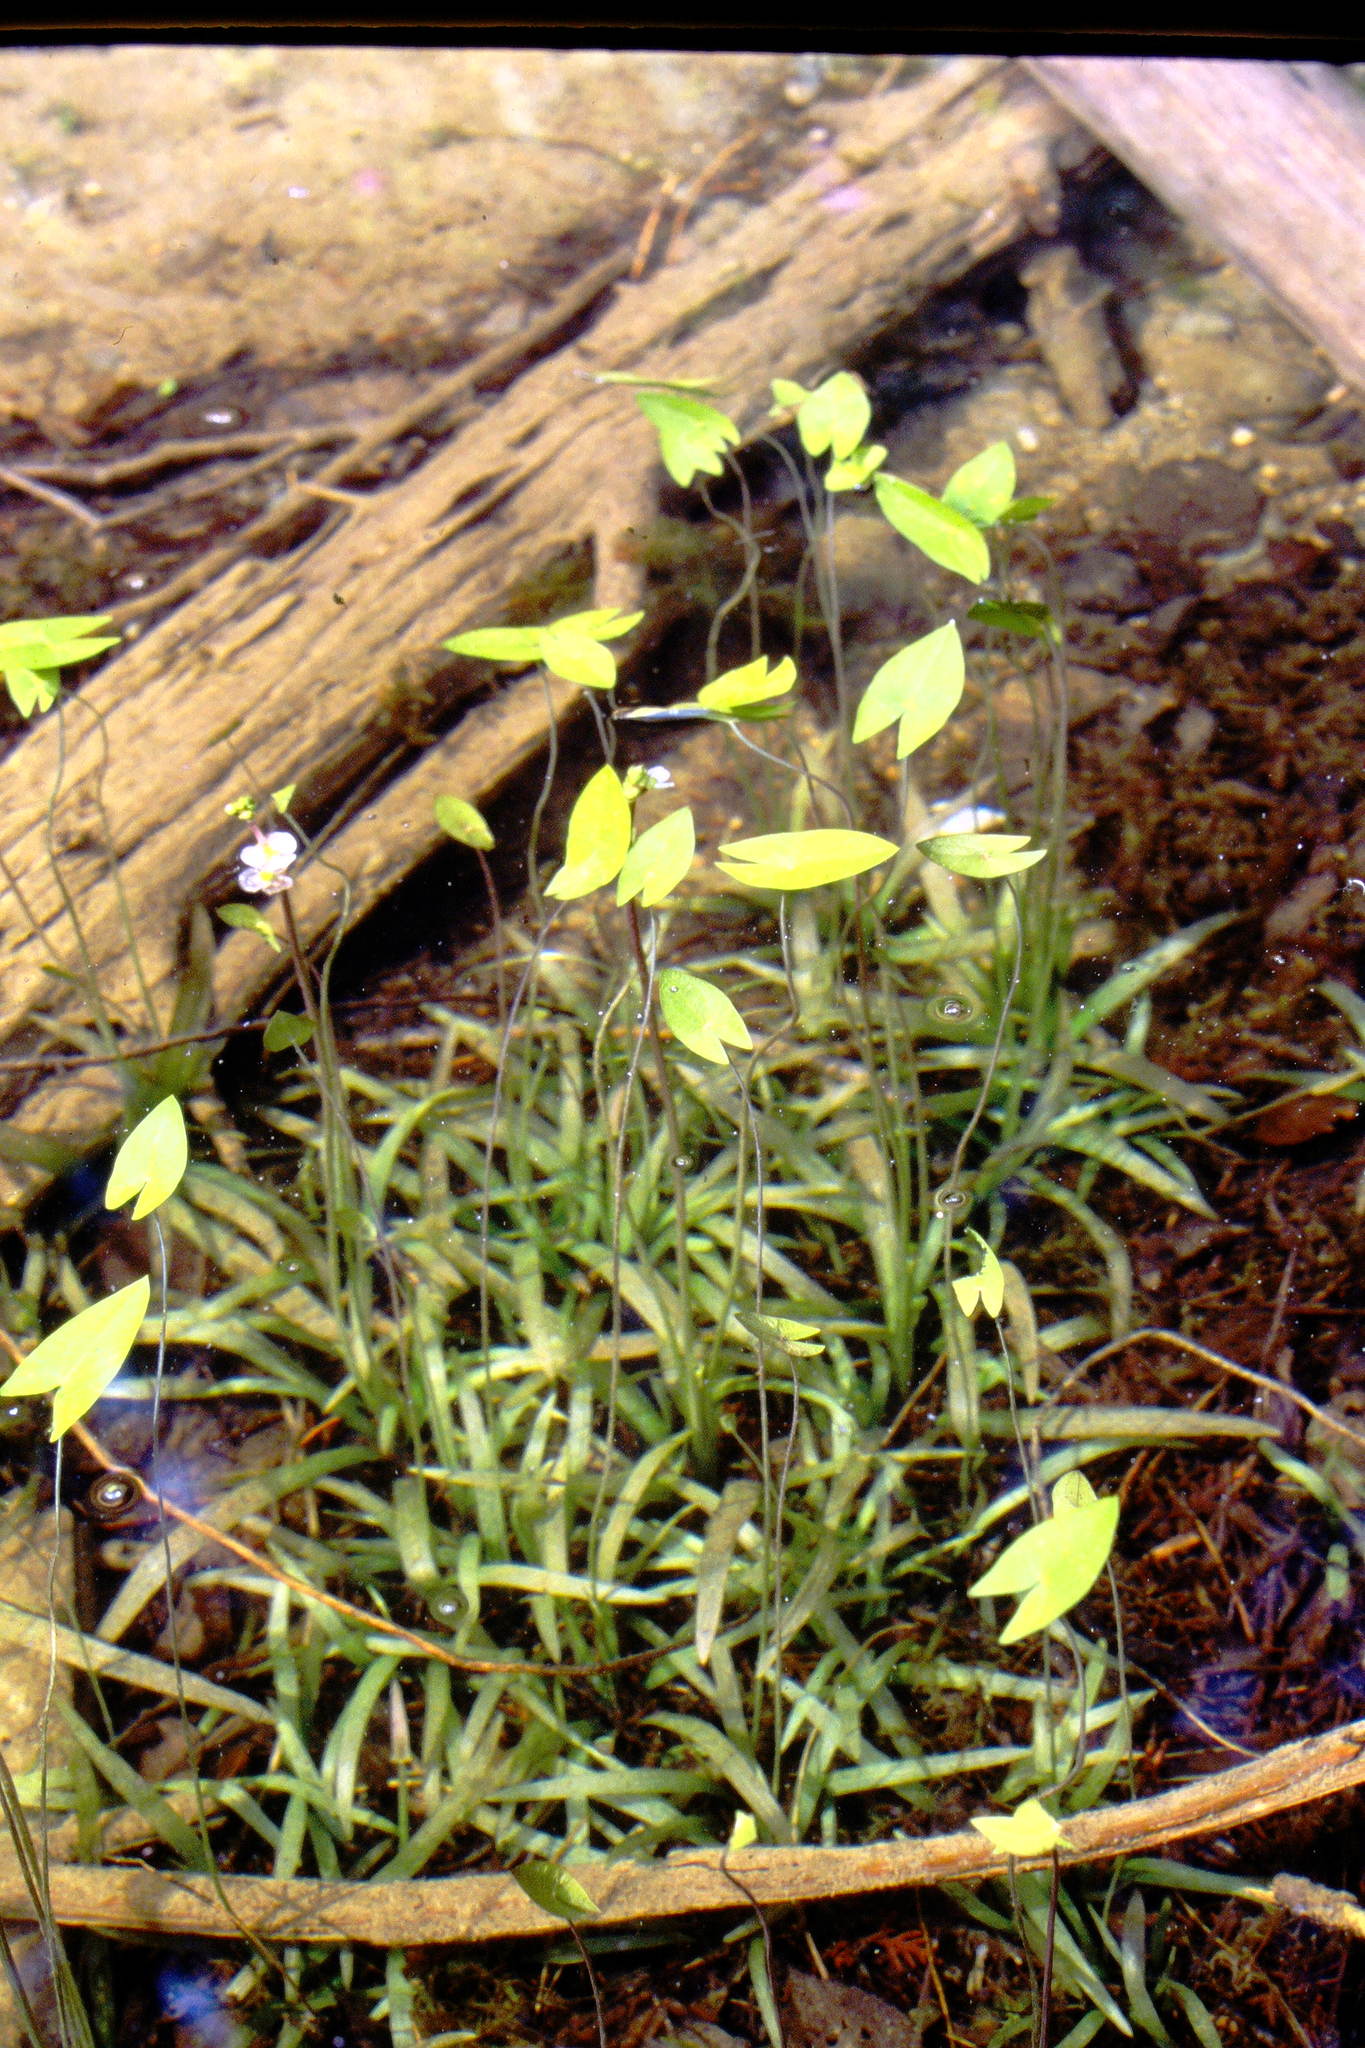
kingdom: Plantae
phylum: Tracheophyta
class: Liliopsida
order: Alismatales
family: Alismataceae
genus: Sagittaria
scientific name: Sagittaria cuneata
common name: Northern arrowhead
